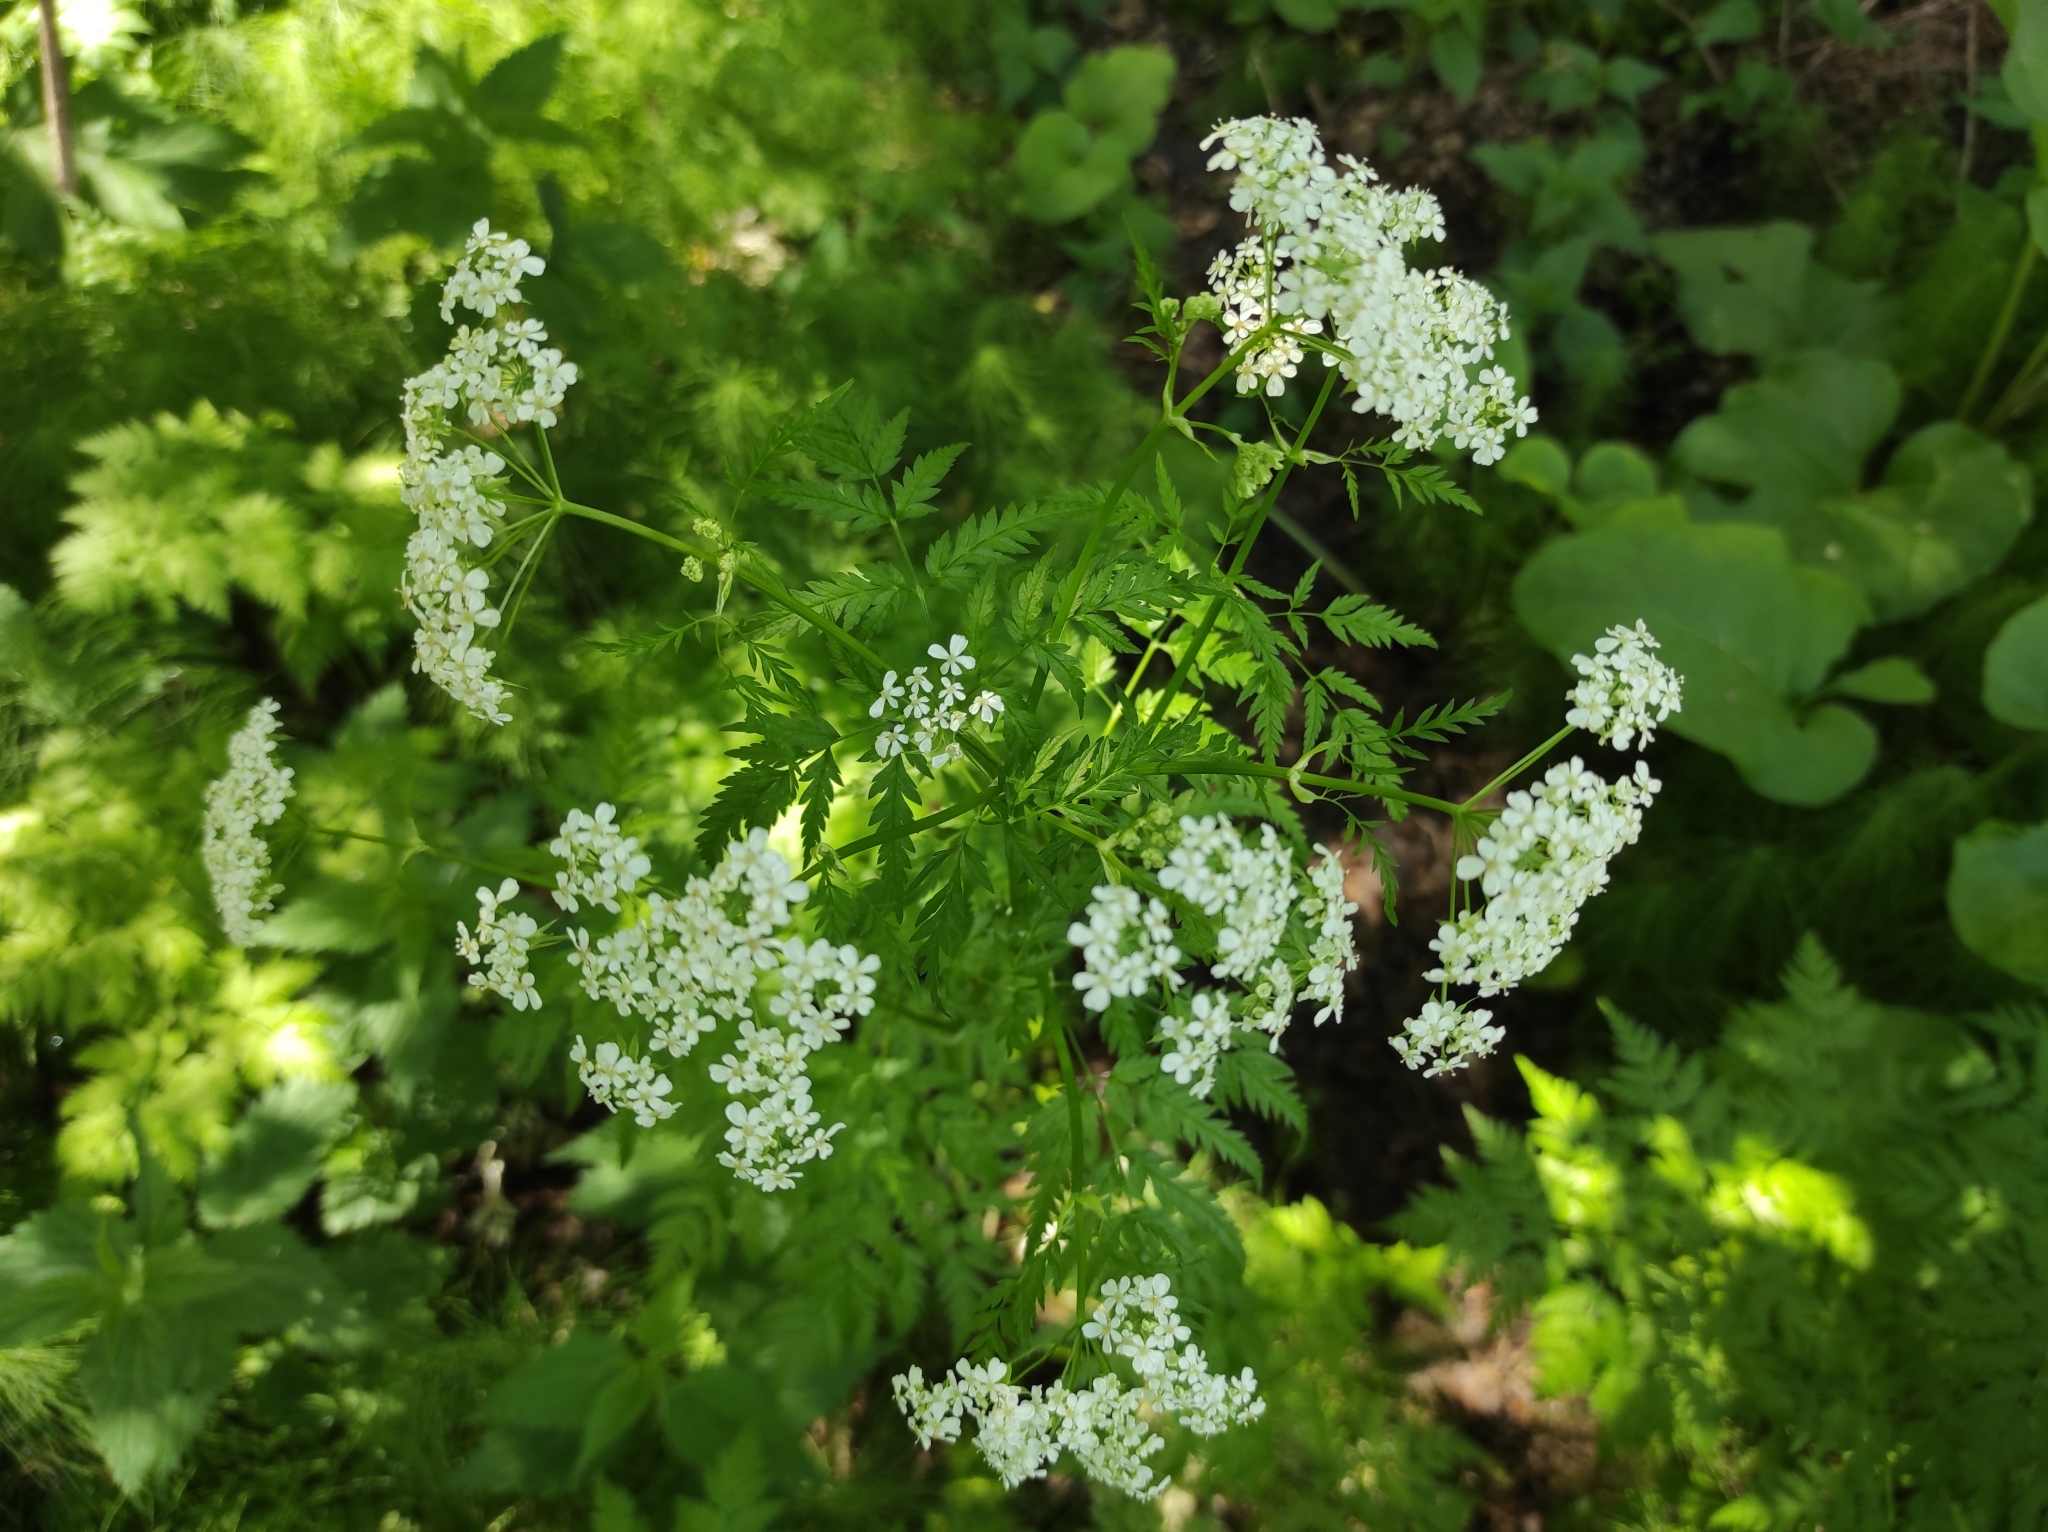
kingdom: Plantae
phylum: Tracheophyta
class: Magnoliopsida
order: Apiales
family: Apiaceae
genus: Anthriscus
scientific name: Anthriscus sylvestris
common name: Cow parsley
